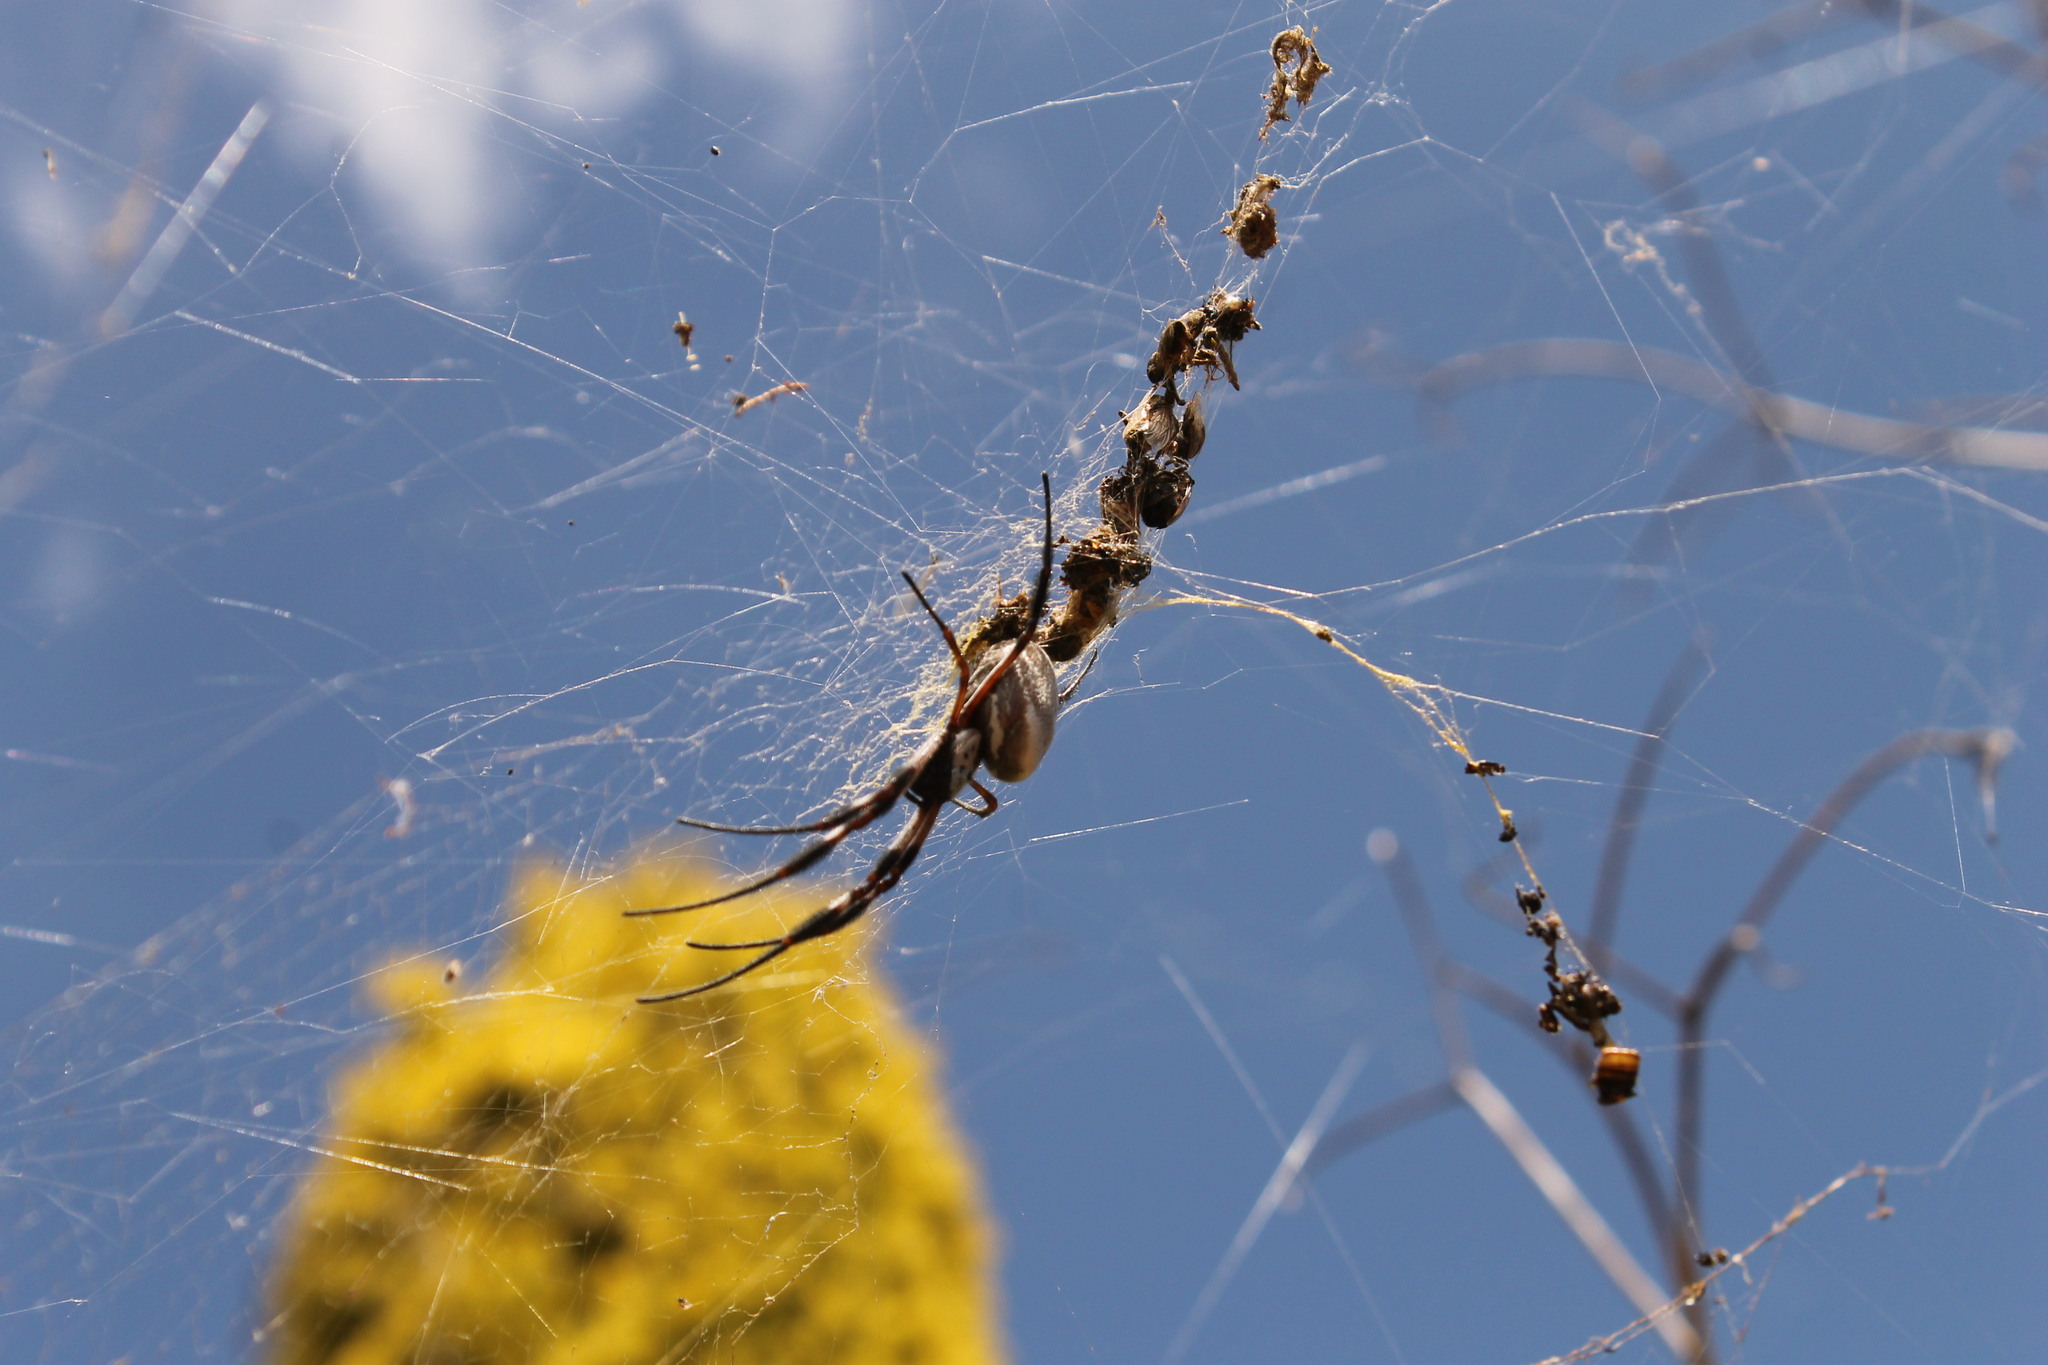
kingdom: Animalia
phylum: Arthropoda
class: Arachnida
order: Araneae
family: Araneidae
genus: Trichonephila
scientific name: Trichonephila edulis
